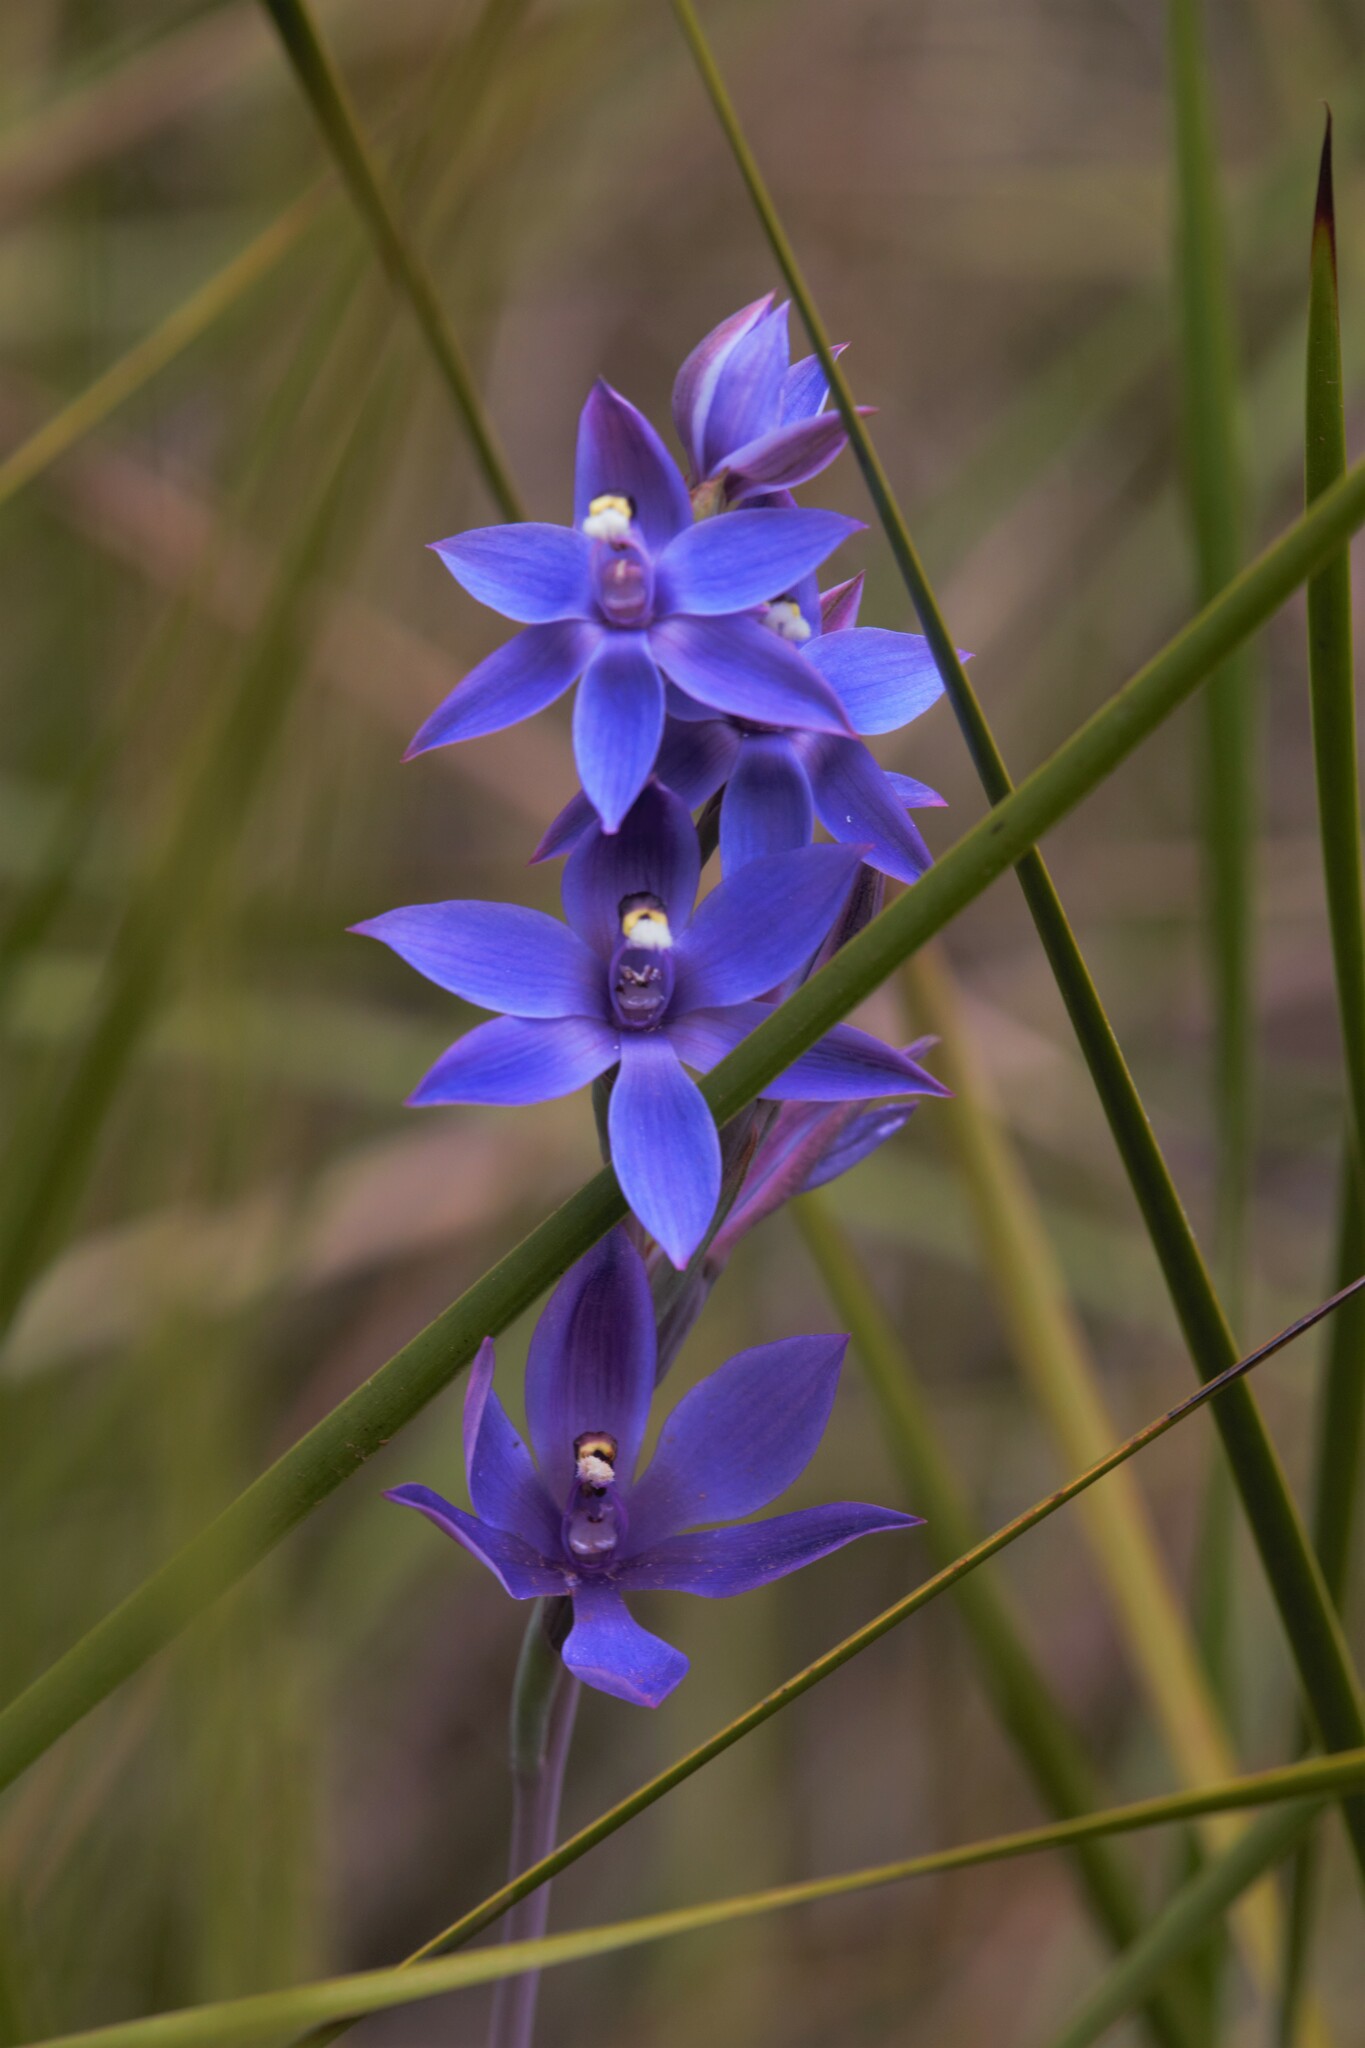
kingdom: Plantae
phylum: Tracheophyta
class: Liliopsida
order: Asparagales
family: Orchidaceae
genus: Thelymitra
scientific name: Thelymitra paludosa
